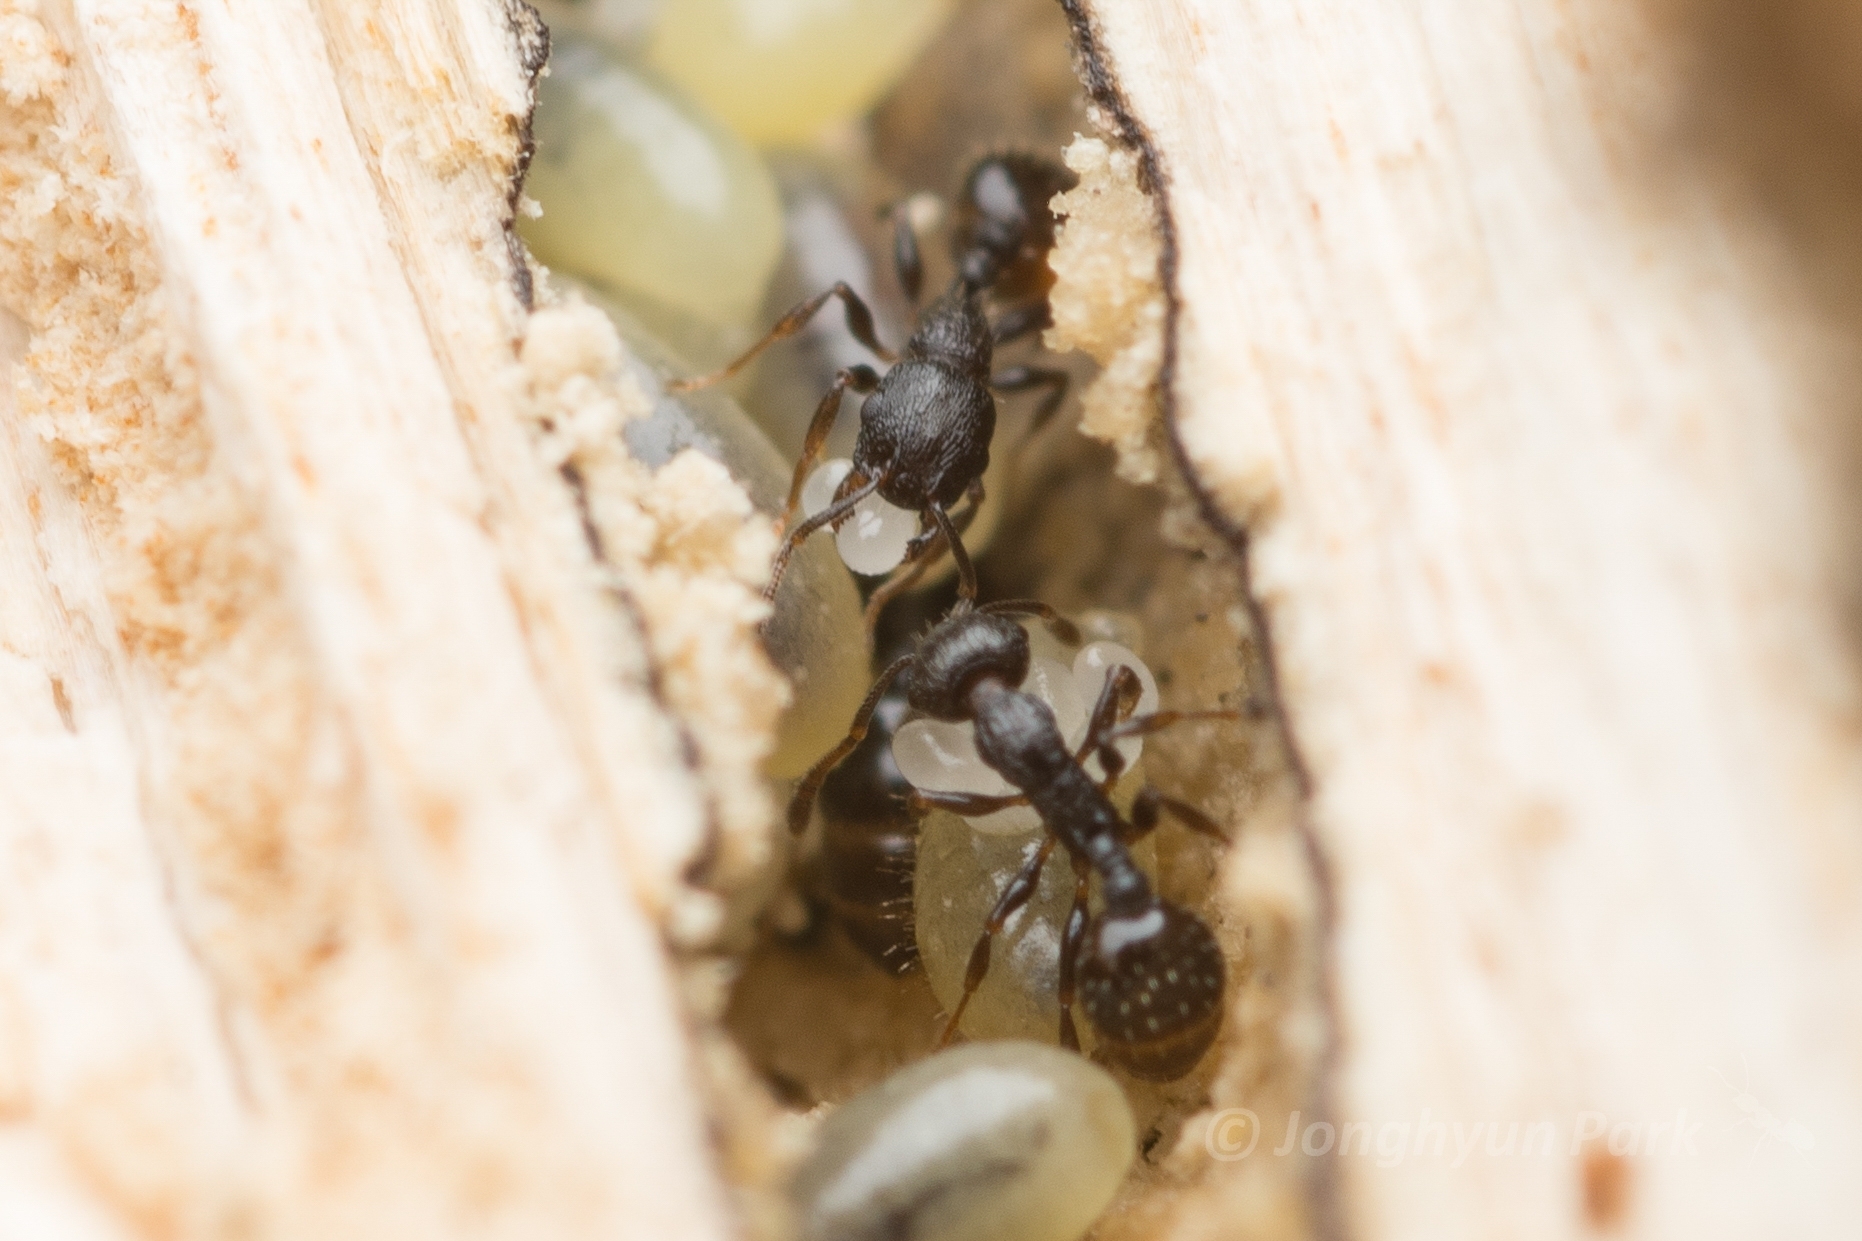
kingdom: Animalia
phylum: Arthropoda
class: Insecta
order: Hymenoptera
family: Formicidae
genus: Temnothorax
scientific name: Temnothorax
